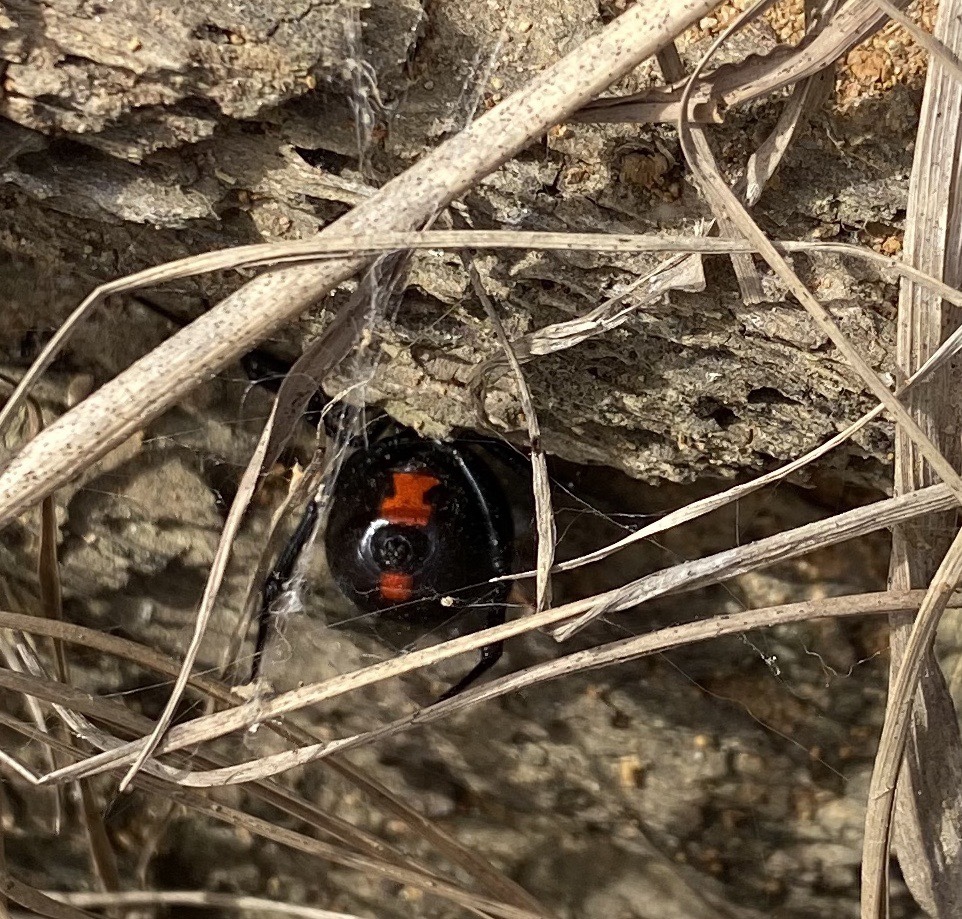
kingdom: Animalia
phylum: Arthropoda
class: Arachnida
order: Araneae
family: Theridiidae
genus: Latrodectus
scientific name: Latrodectus mactans
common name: Cobweb spiders
